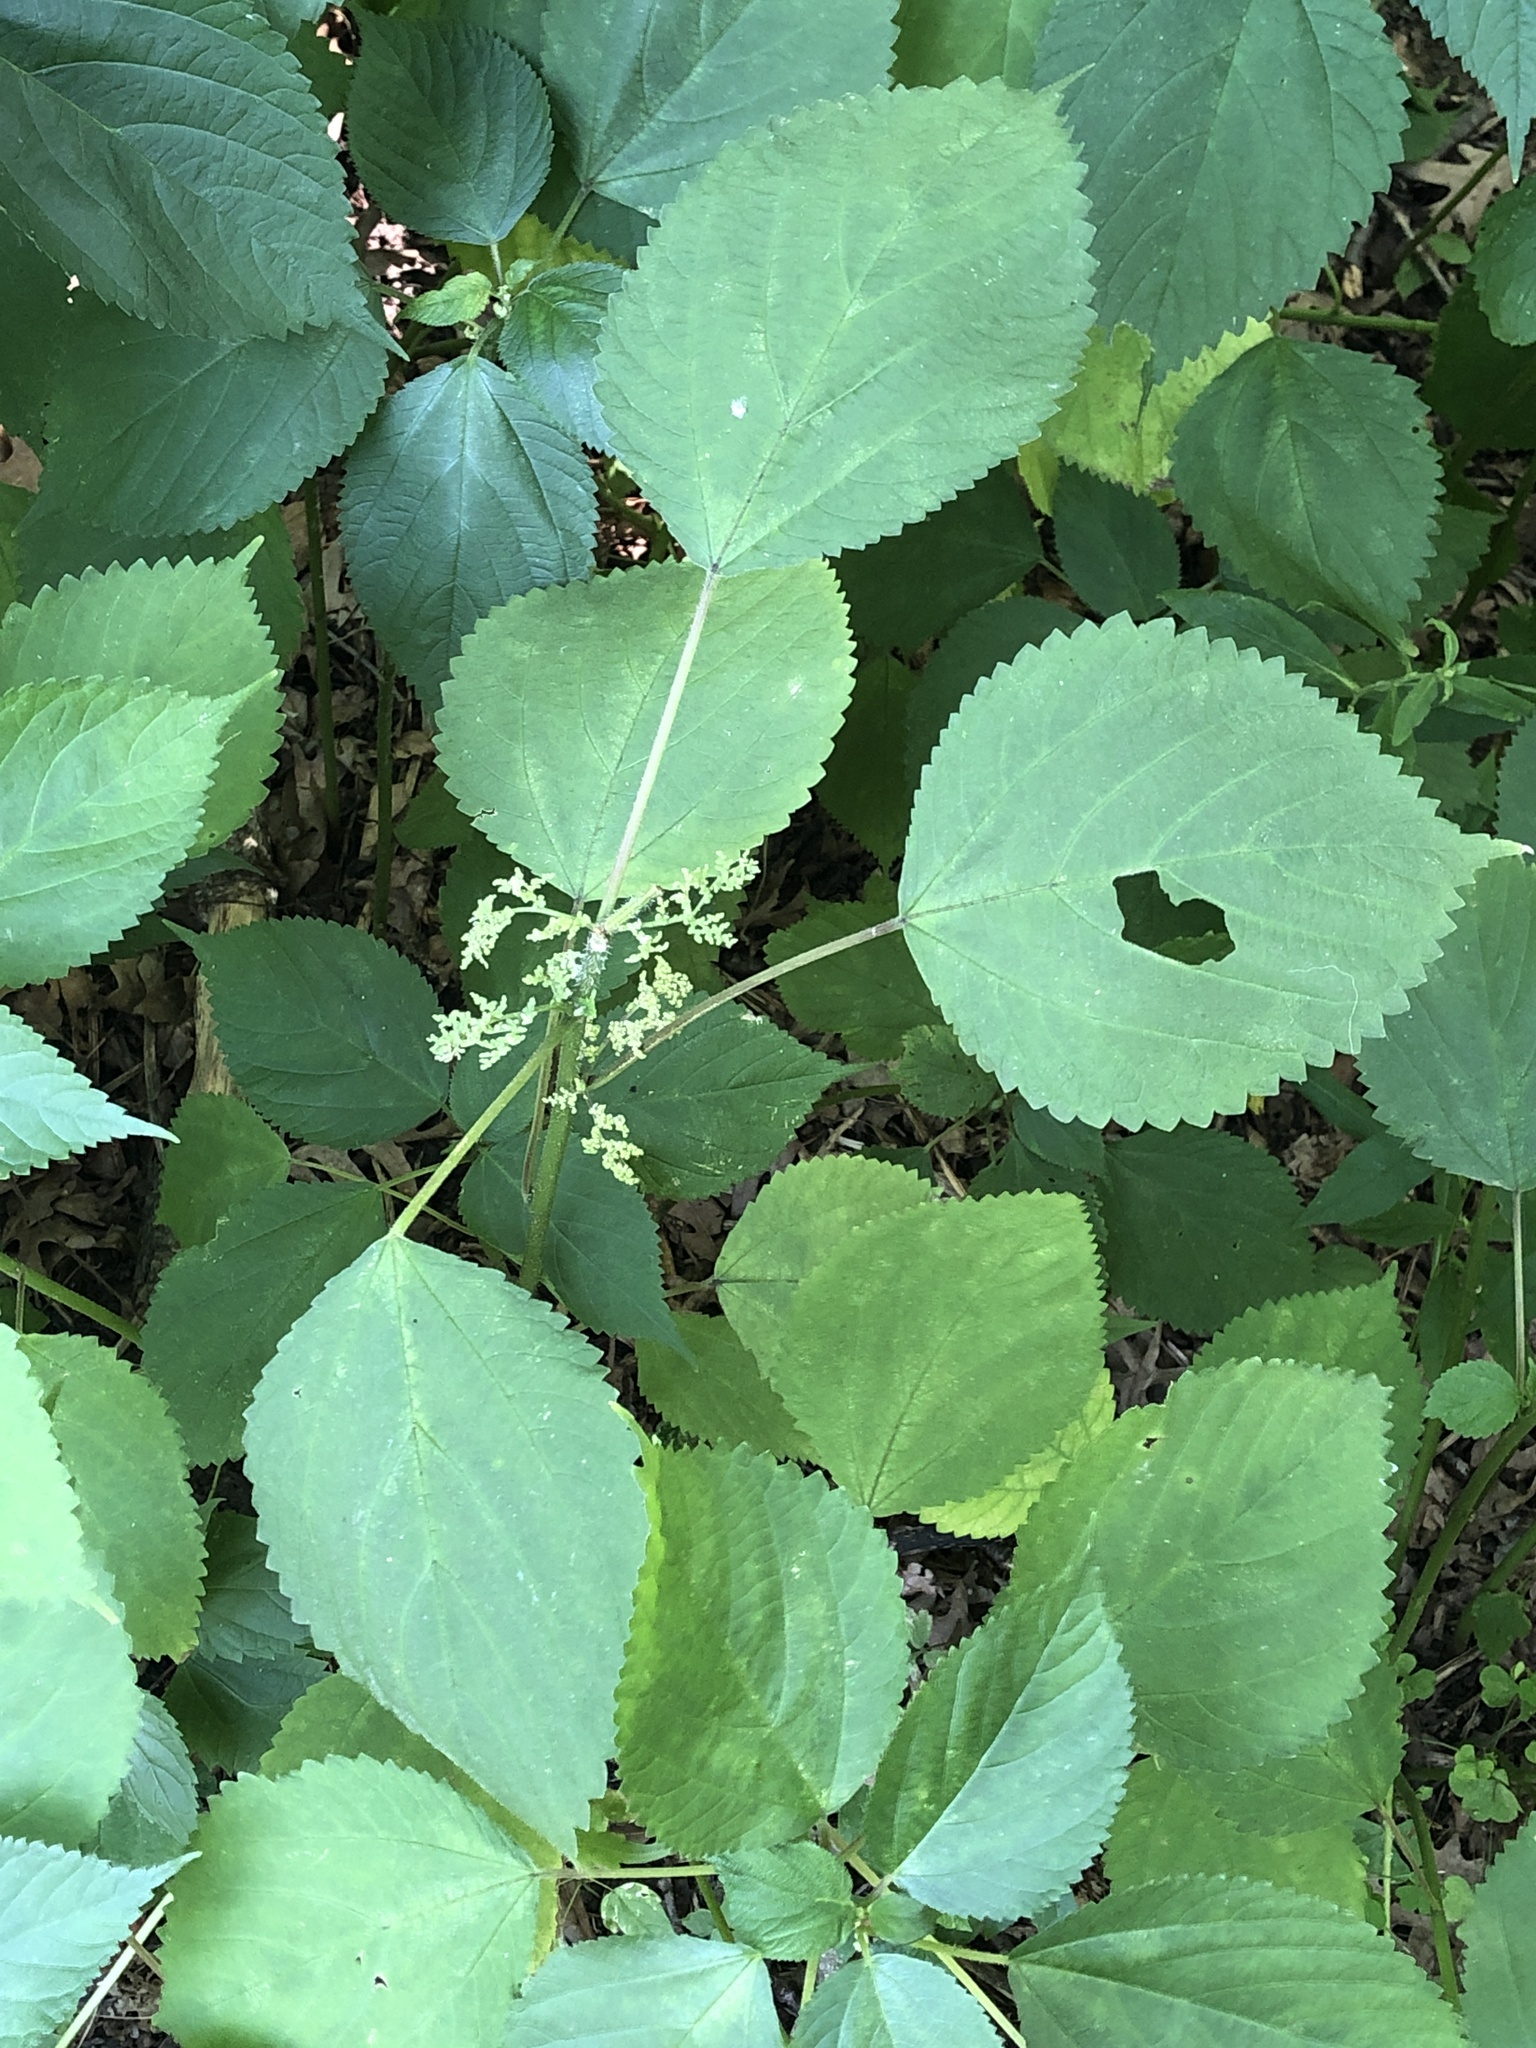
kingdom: Plantae
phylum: Tracheophyta
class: Magnoliopsida
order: Rosales
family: Urticaceae
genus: Laportea
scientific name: Laportea canadensis
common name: Canada nettle
